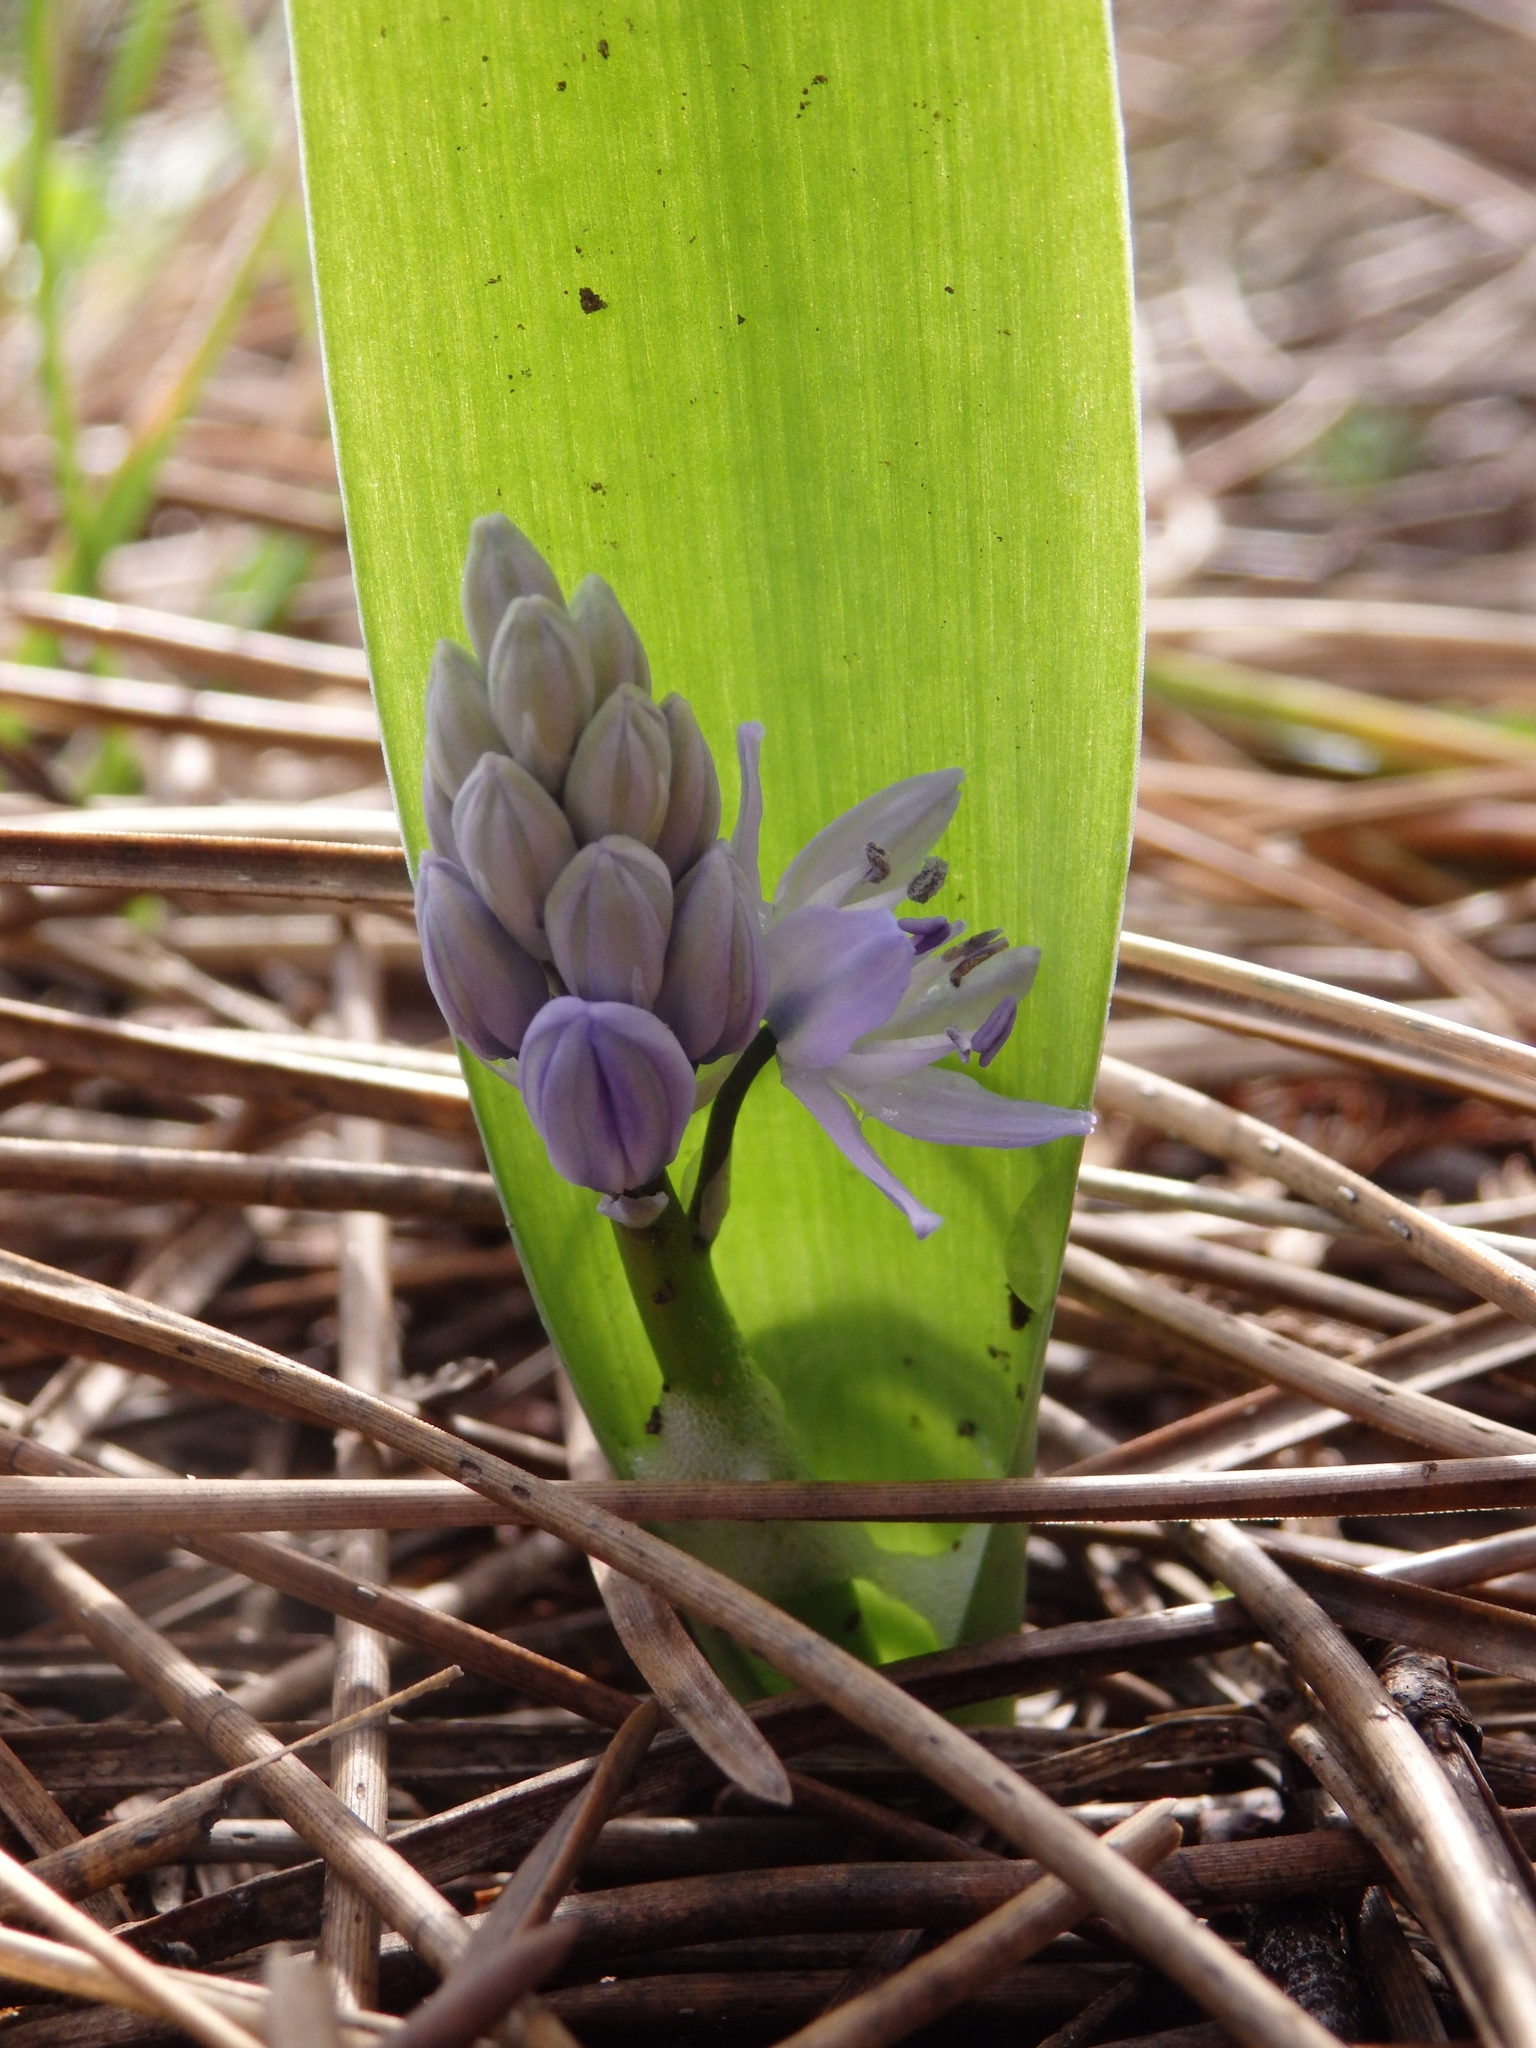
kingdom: Plantae
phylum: Tracheophyta
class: Liliopsida
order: Asparagales
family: Asparagaceae
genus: Scilla
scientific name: Scilla monophyllos
